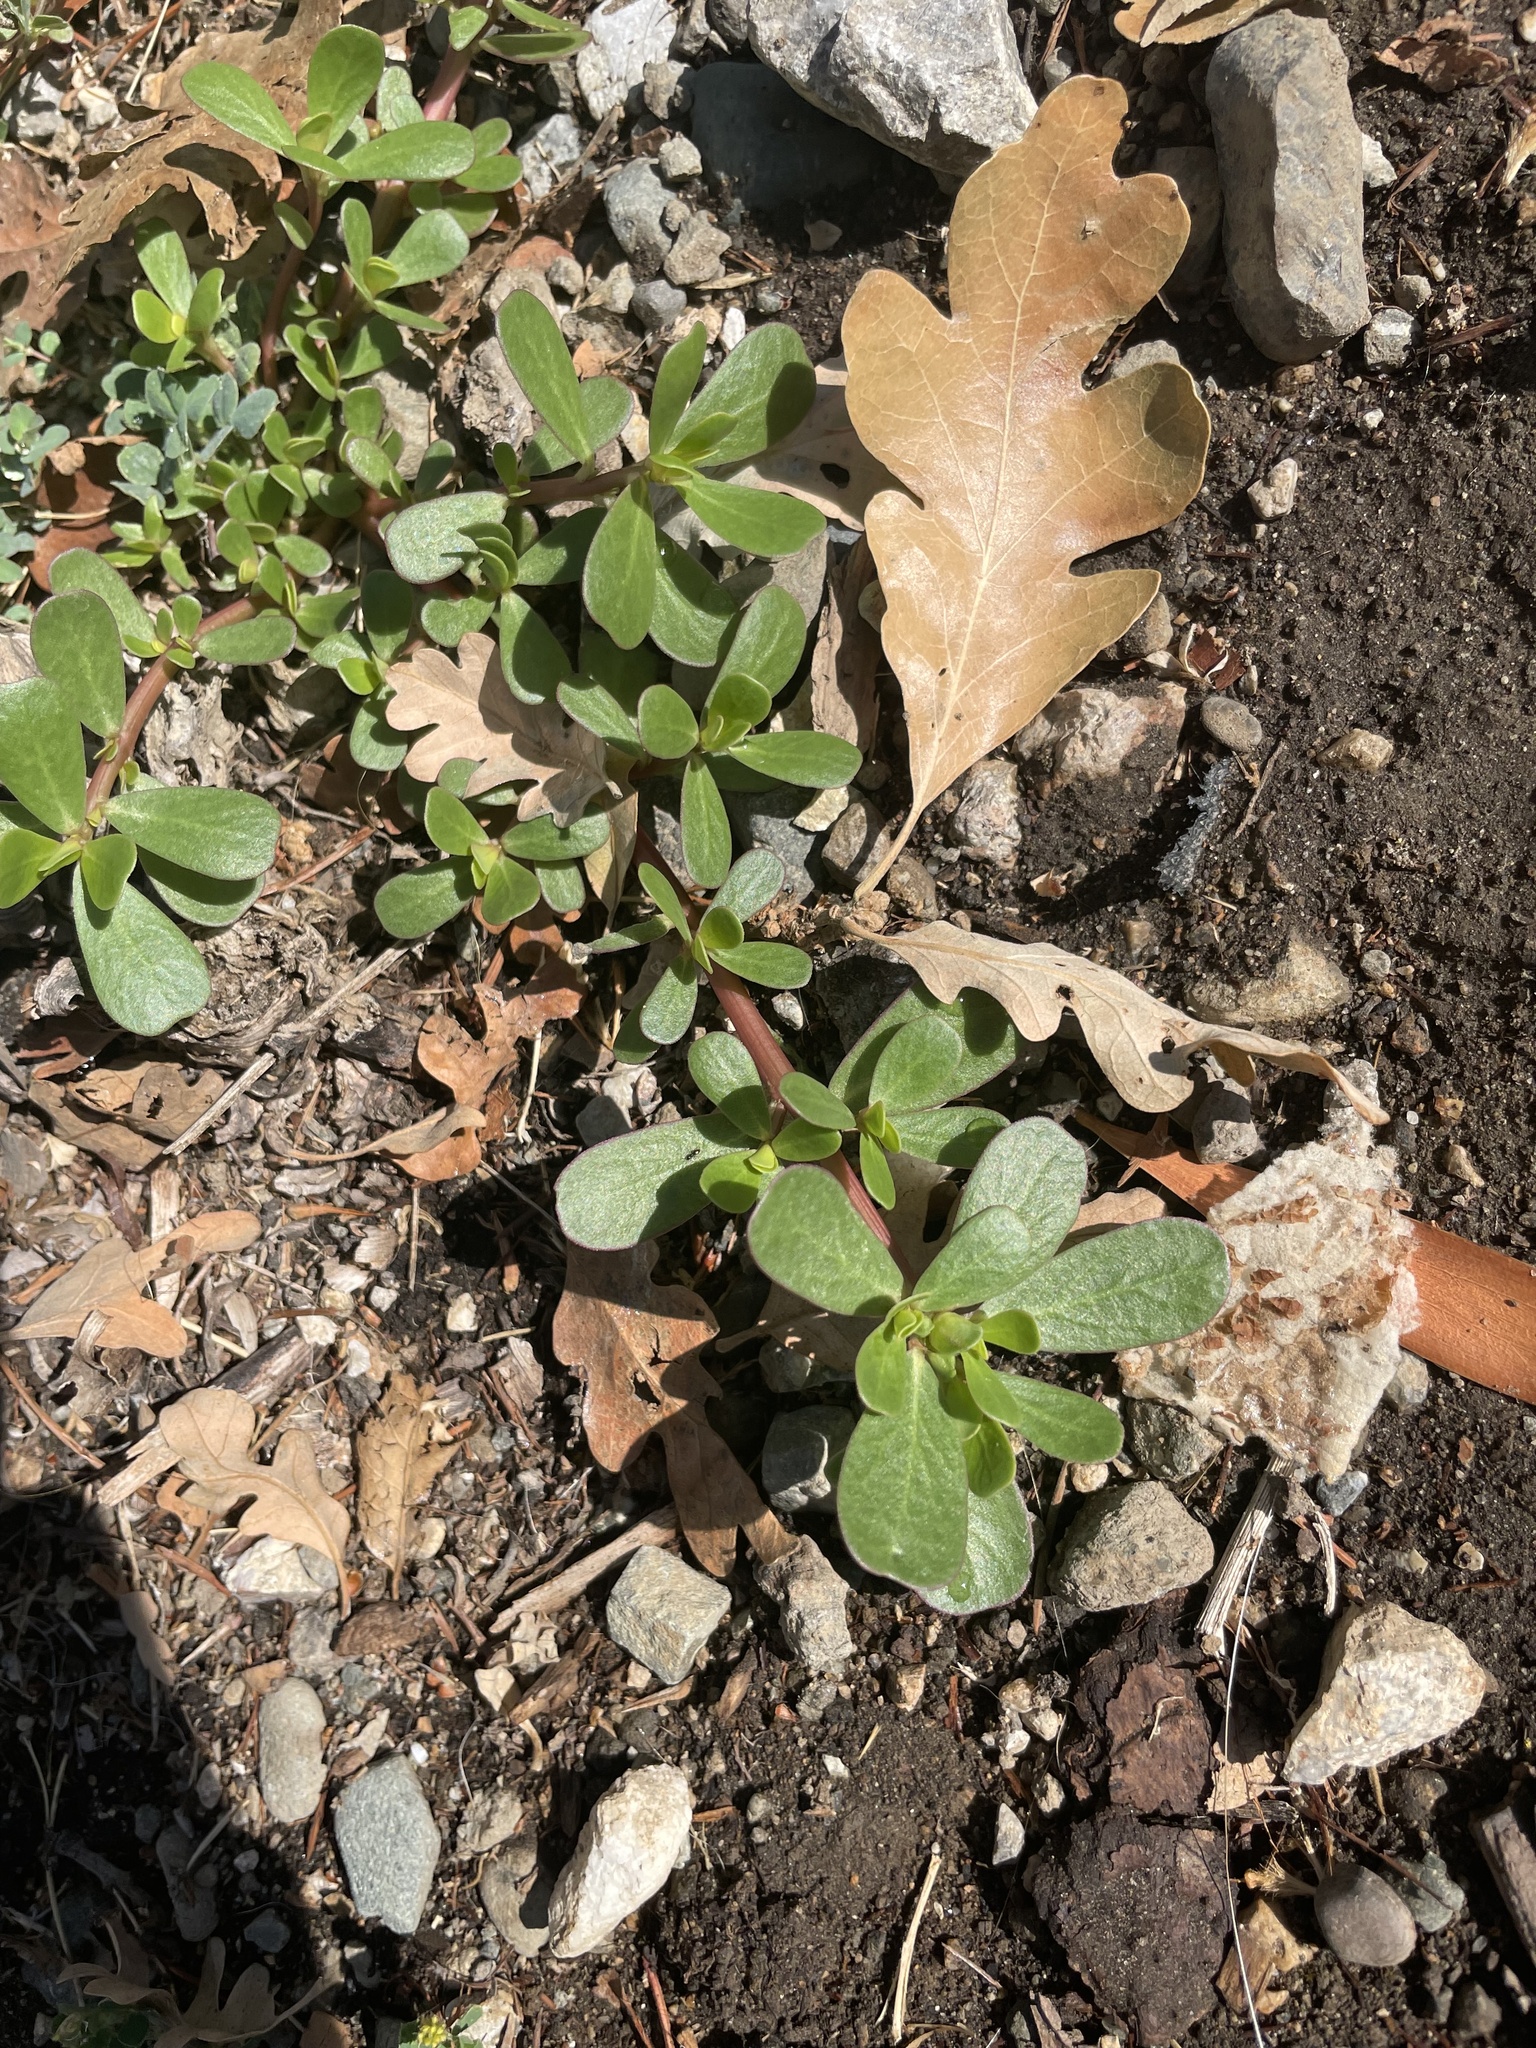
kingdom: Plantae
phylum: Tracheophyta
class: Magnoliopsida
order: Caryophyllales
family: Portulacaceae
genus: Portulaca
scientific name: Portulaca oleracea
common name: Common purslane
